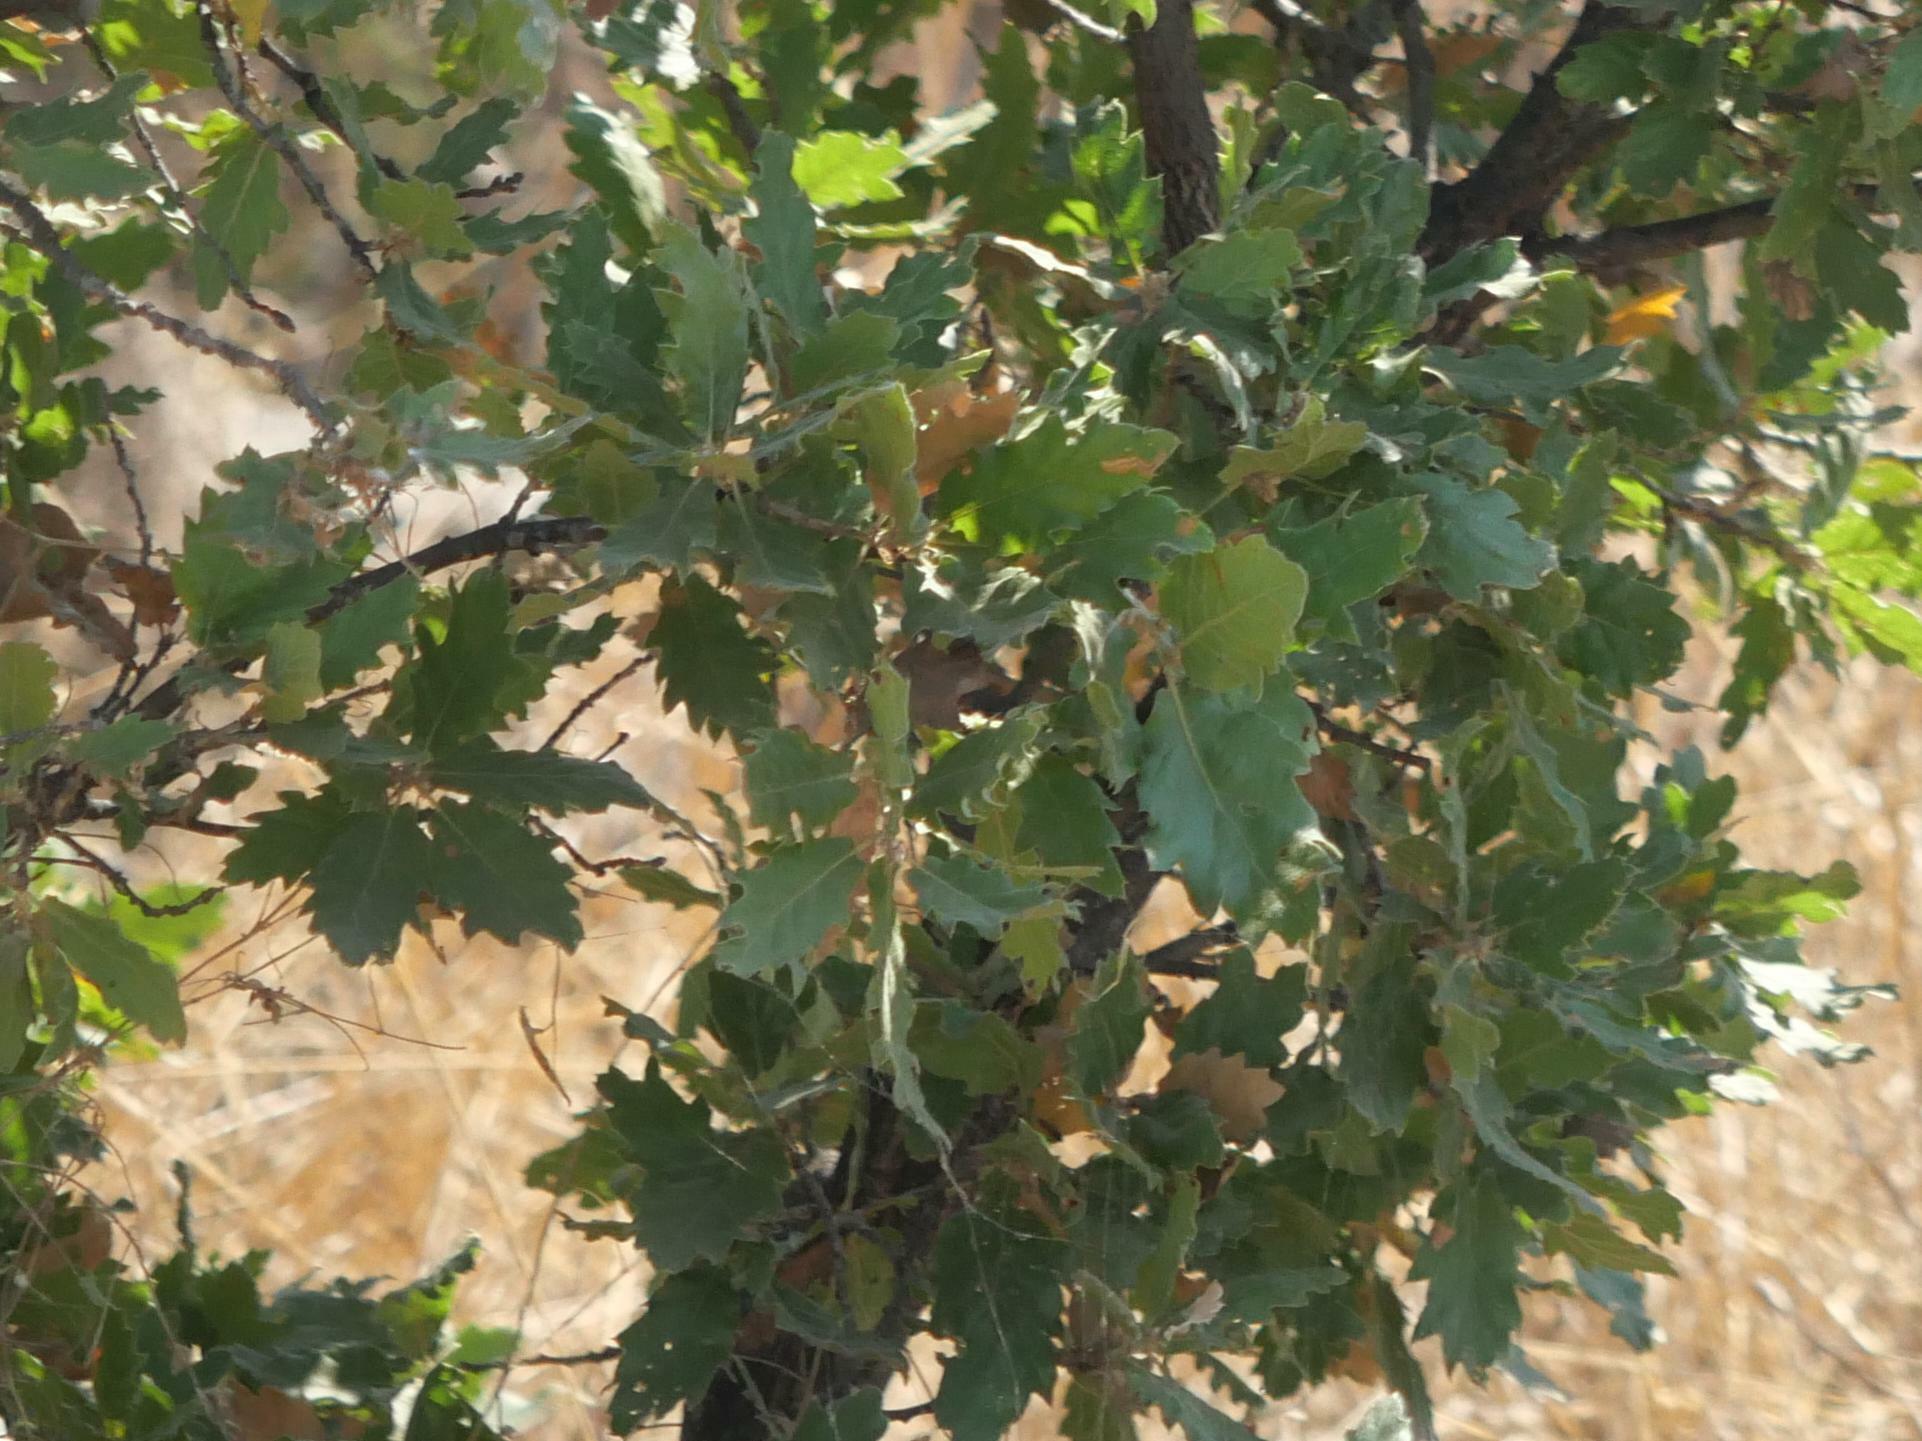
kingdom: Plantae
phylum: Tracheophyta
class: Magnoliopsida
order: Fagales
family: Fagaceae
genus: Quercus
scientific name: Quercus ithaburensis
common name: Tabor oak
